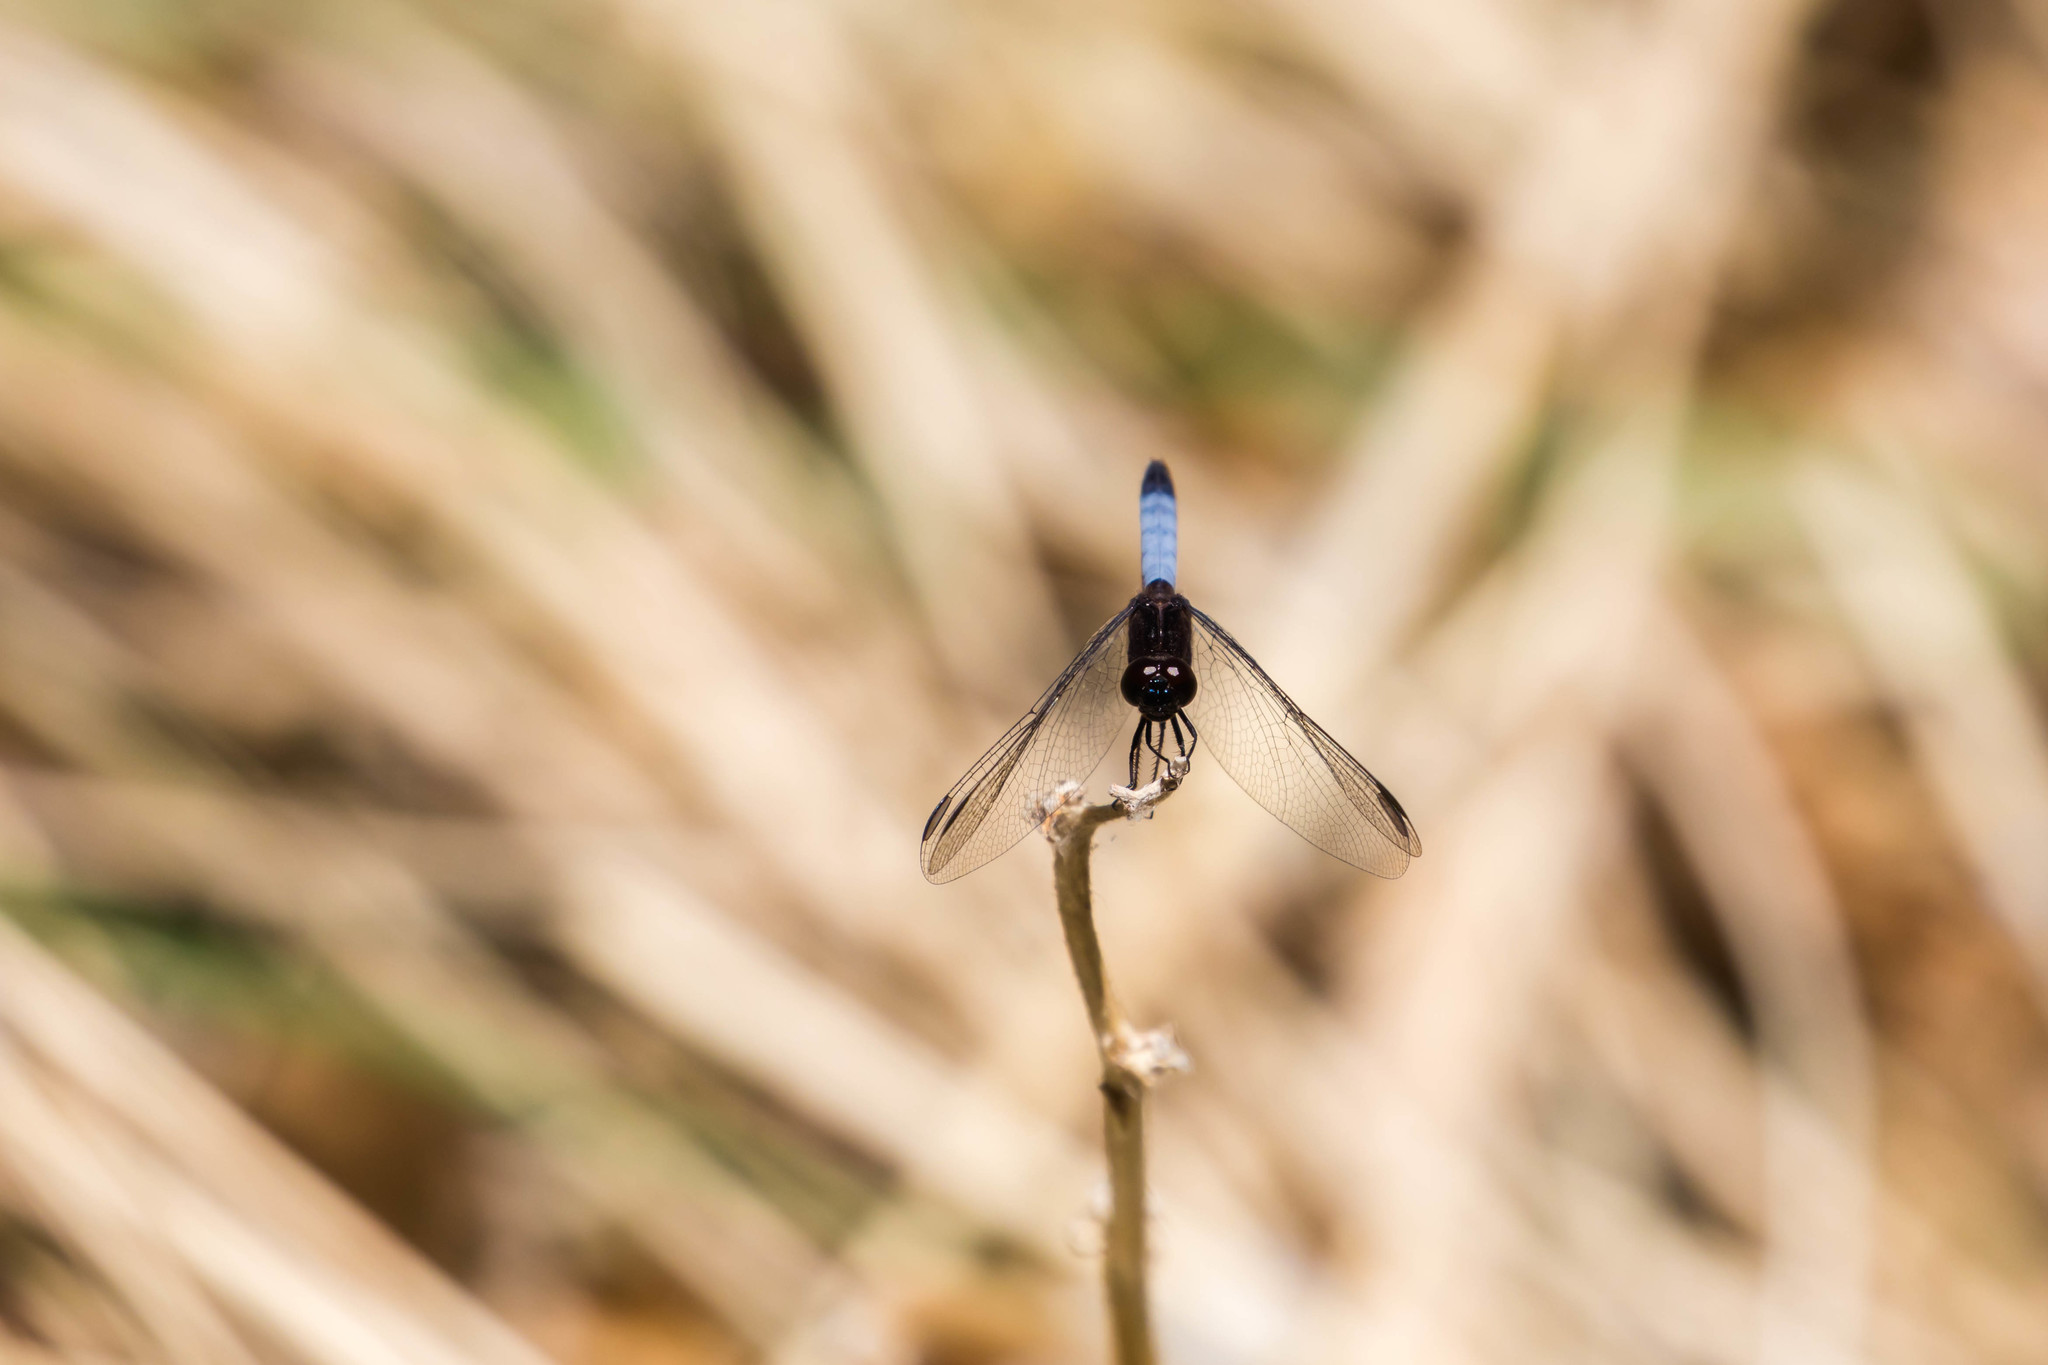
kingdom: Animalia
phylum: Arthropoda
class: Insecta
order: Odonata
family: Libellulidae
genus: Erythrodiplax
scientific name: Erythrodiplax basifusca
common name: Plateau dragonlet
